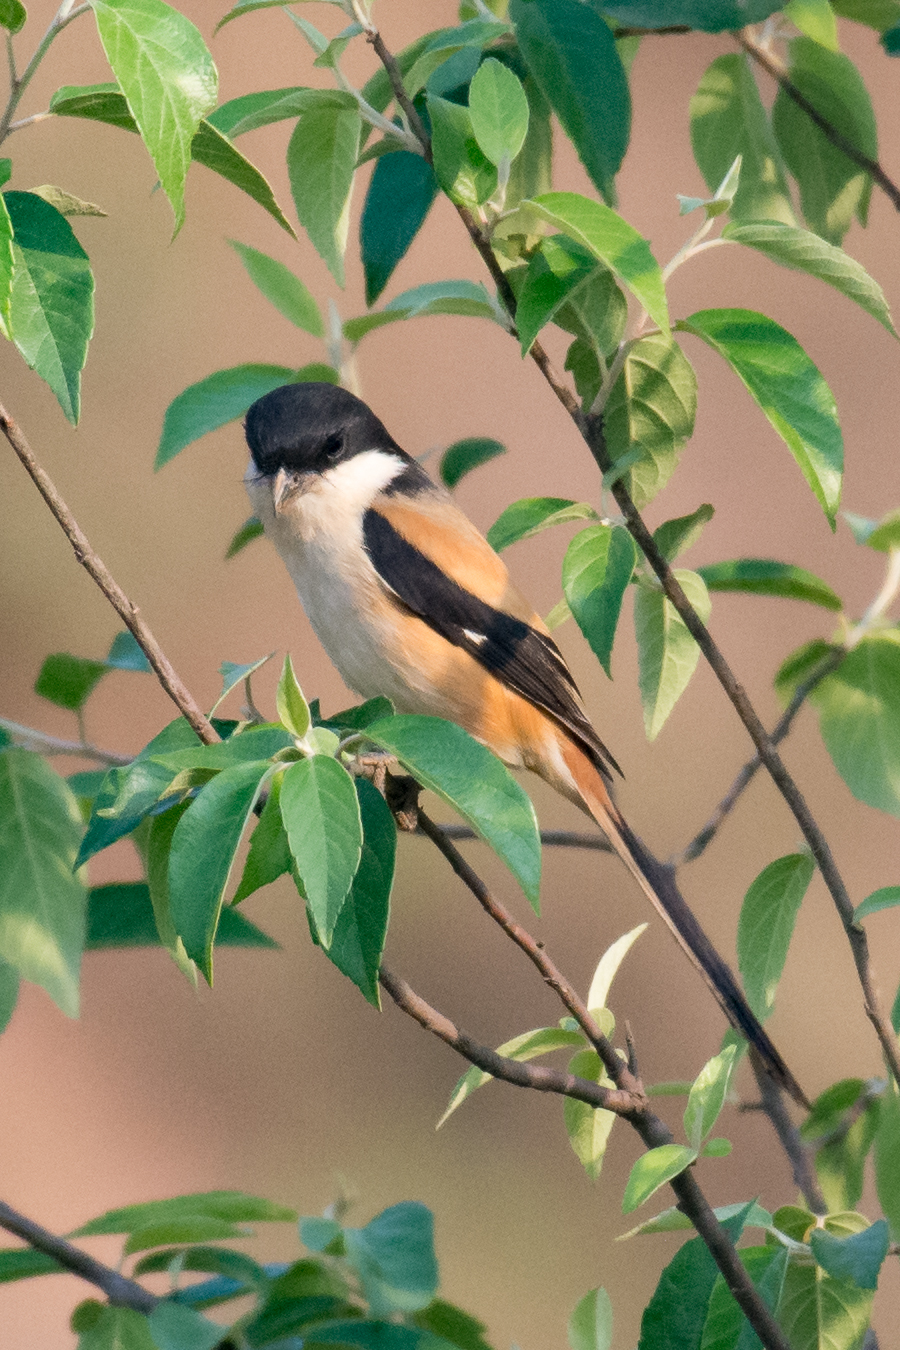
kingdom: Animalia
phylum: Chordata
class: Aves
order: Passeriformes
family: Laniidae
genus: Lanius
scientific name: Lanius schach
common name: Long-tailed shrike
